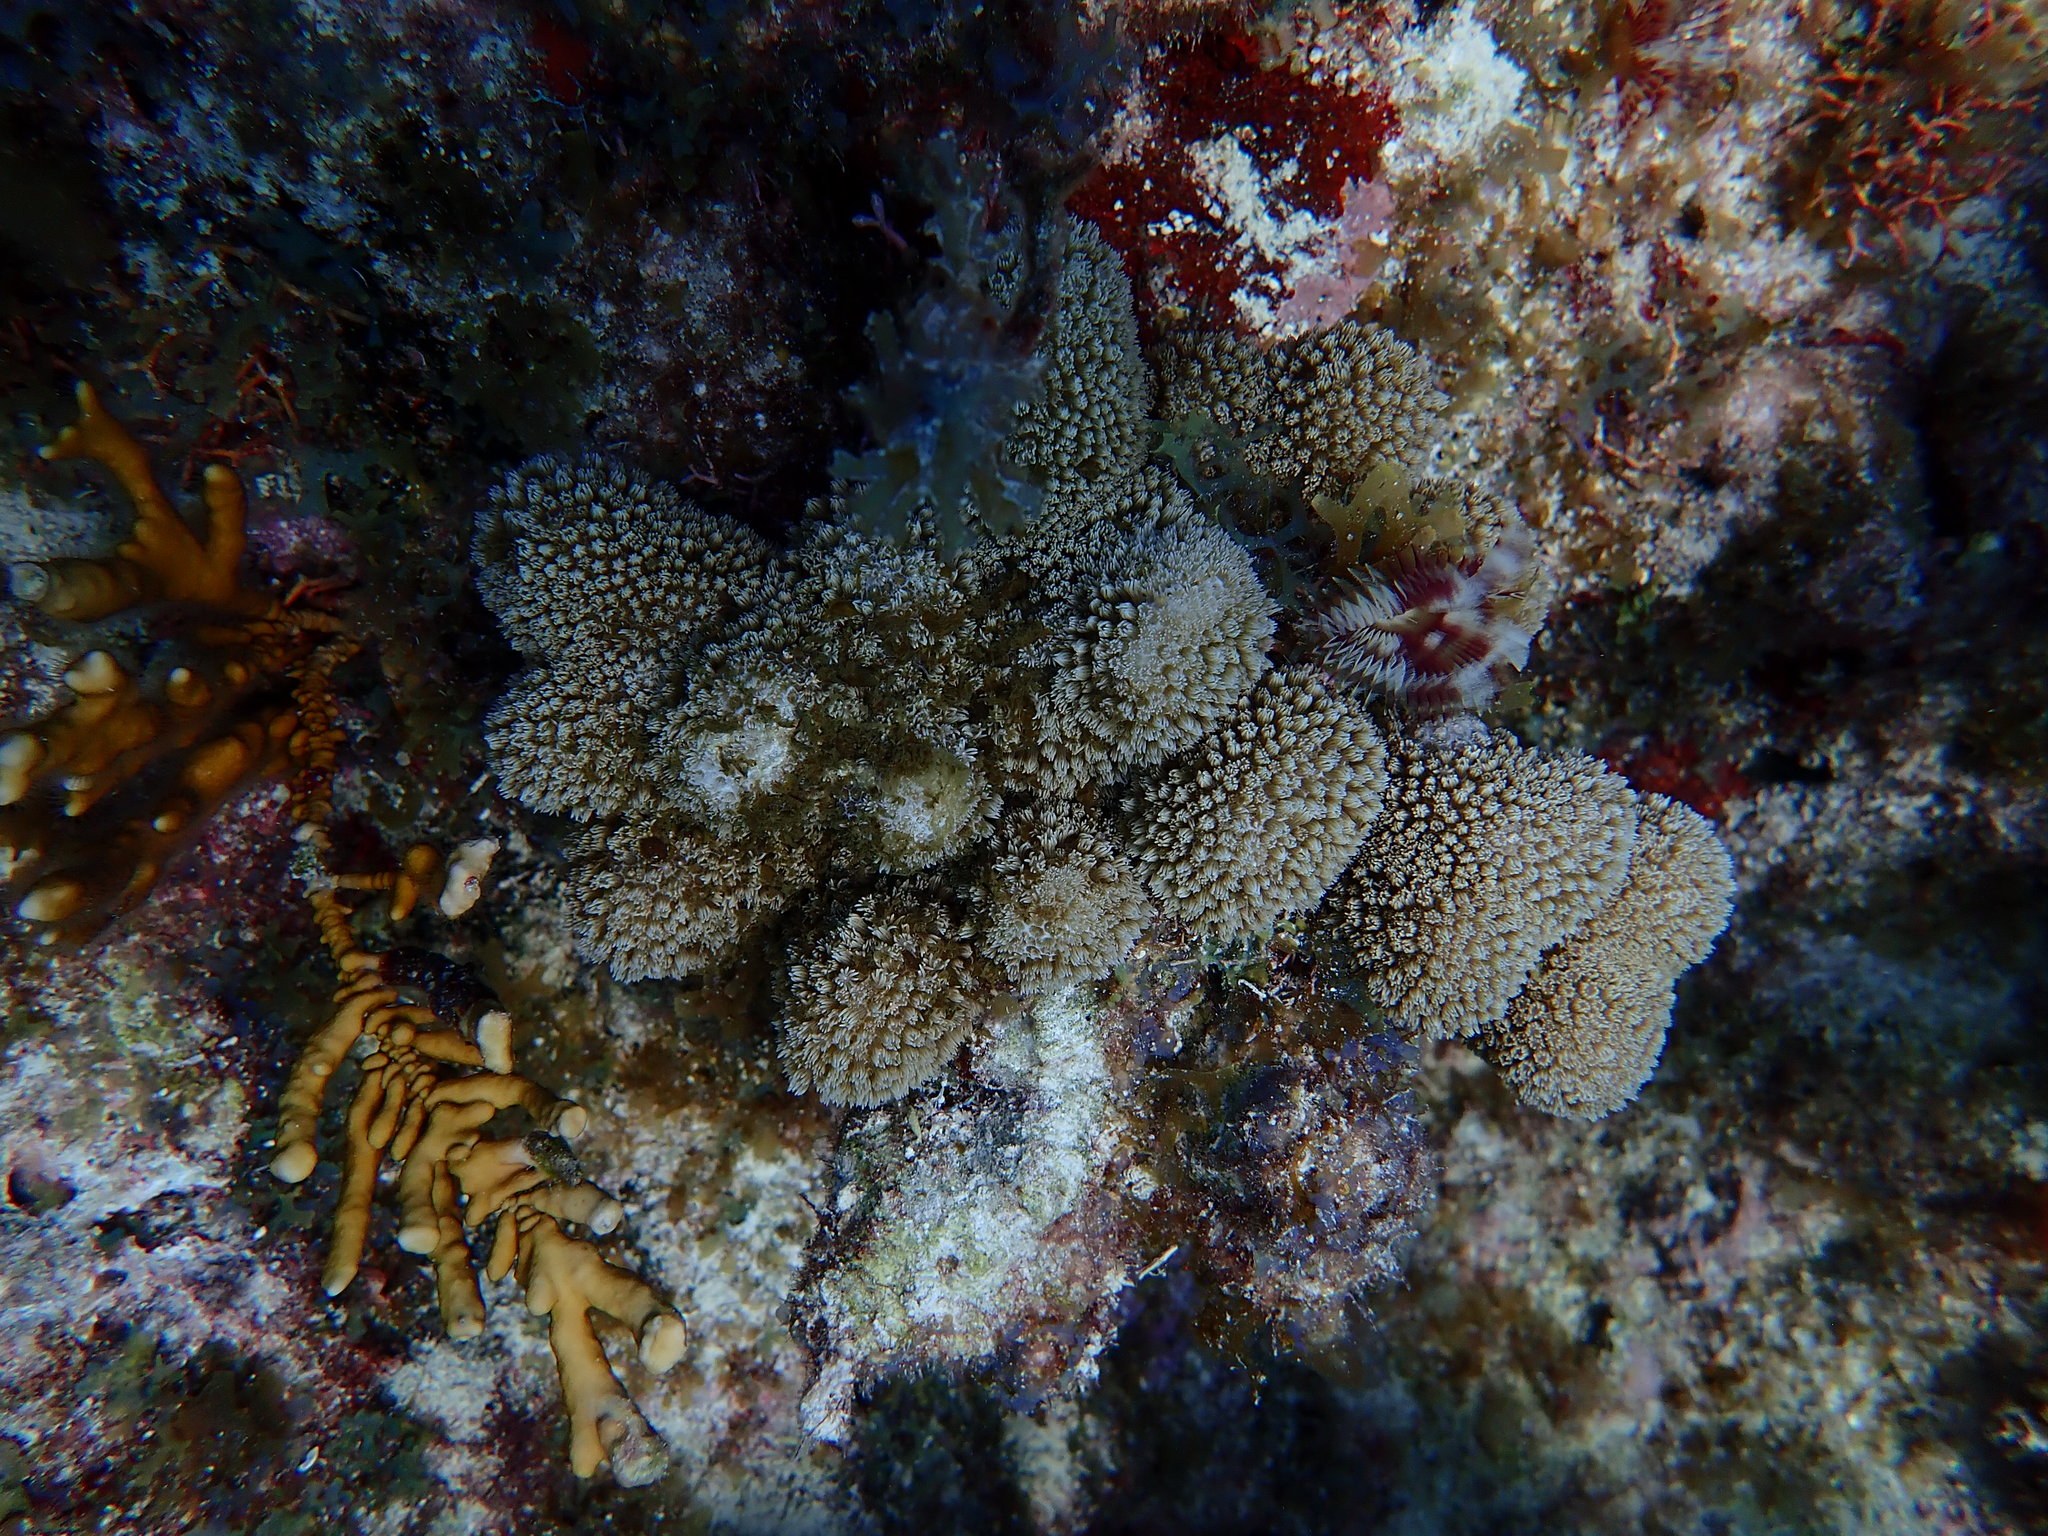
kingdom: Animalia
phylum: Cnidaria
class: Anthozoa
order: Scleractinia
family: Poritidae
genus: Porites
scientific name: Porites porites
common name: Finger coral
